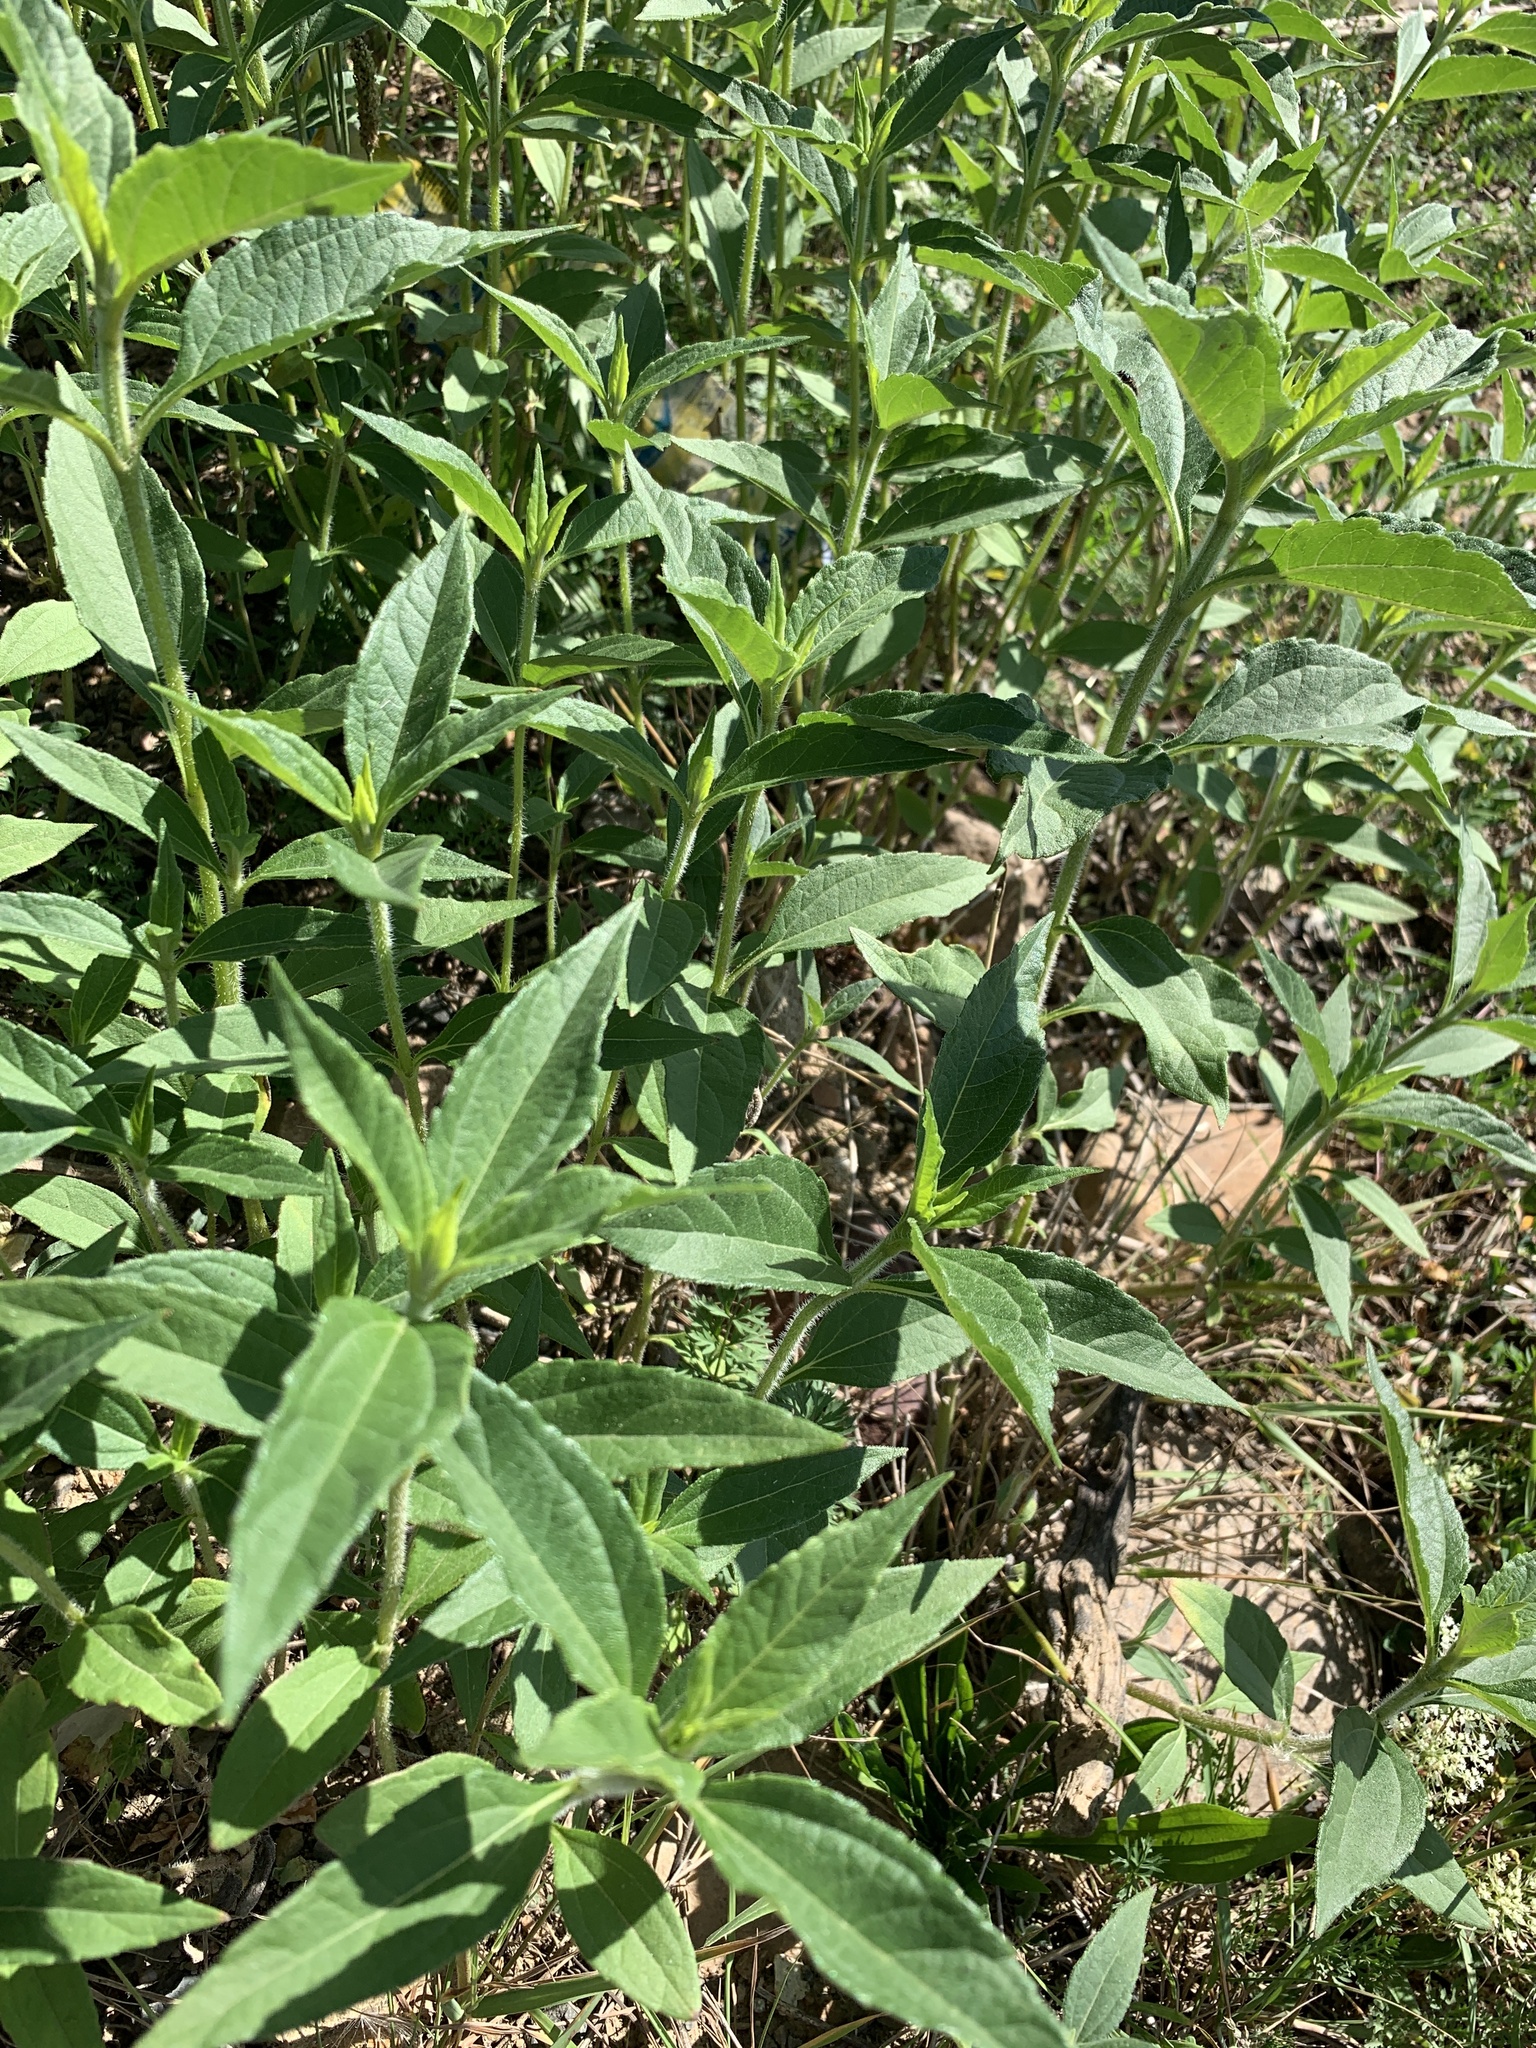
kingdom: Plantae
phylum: Tracheophyta
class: Magnoliopsida
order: Asterales
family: Asteraceae
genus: Helianthus
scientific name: Helianthus tuberosus
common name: Jerusalem artichoke
